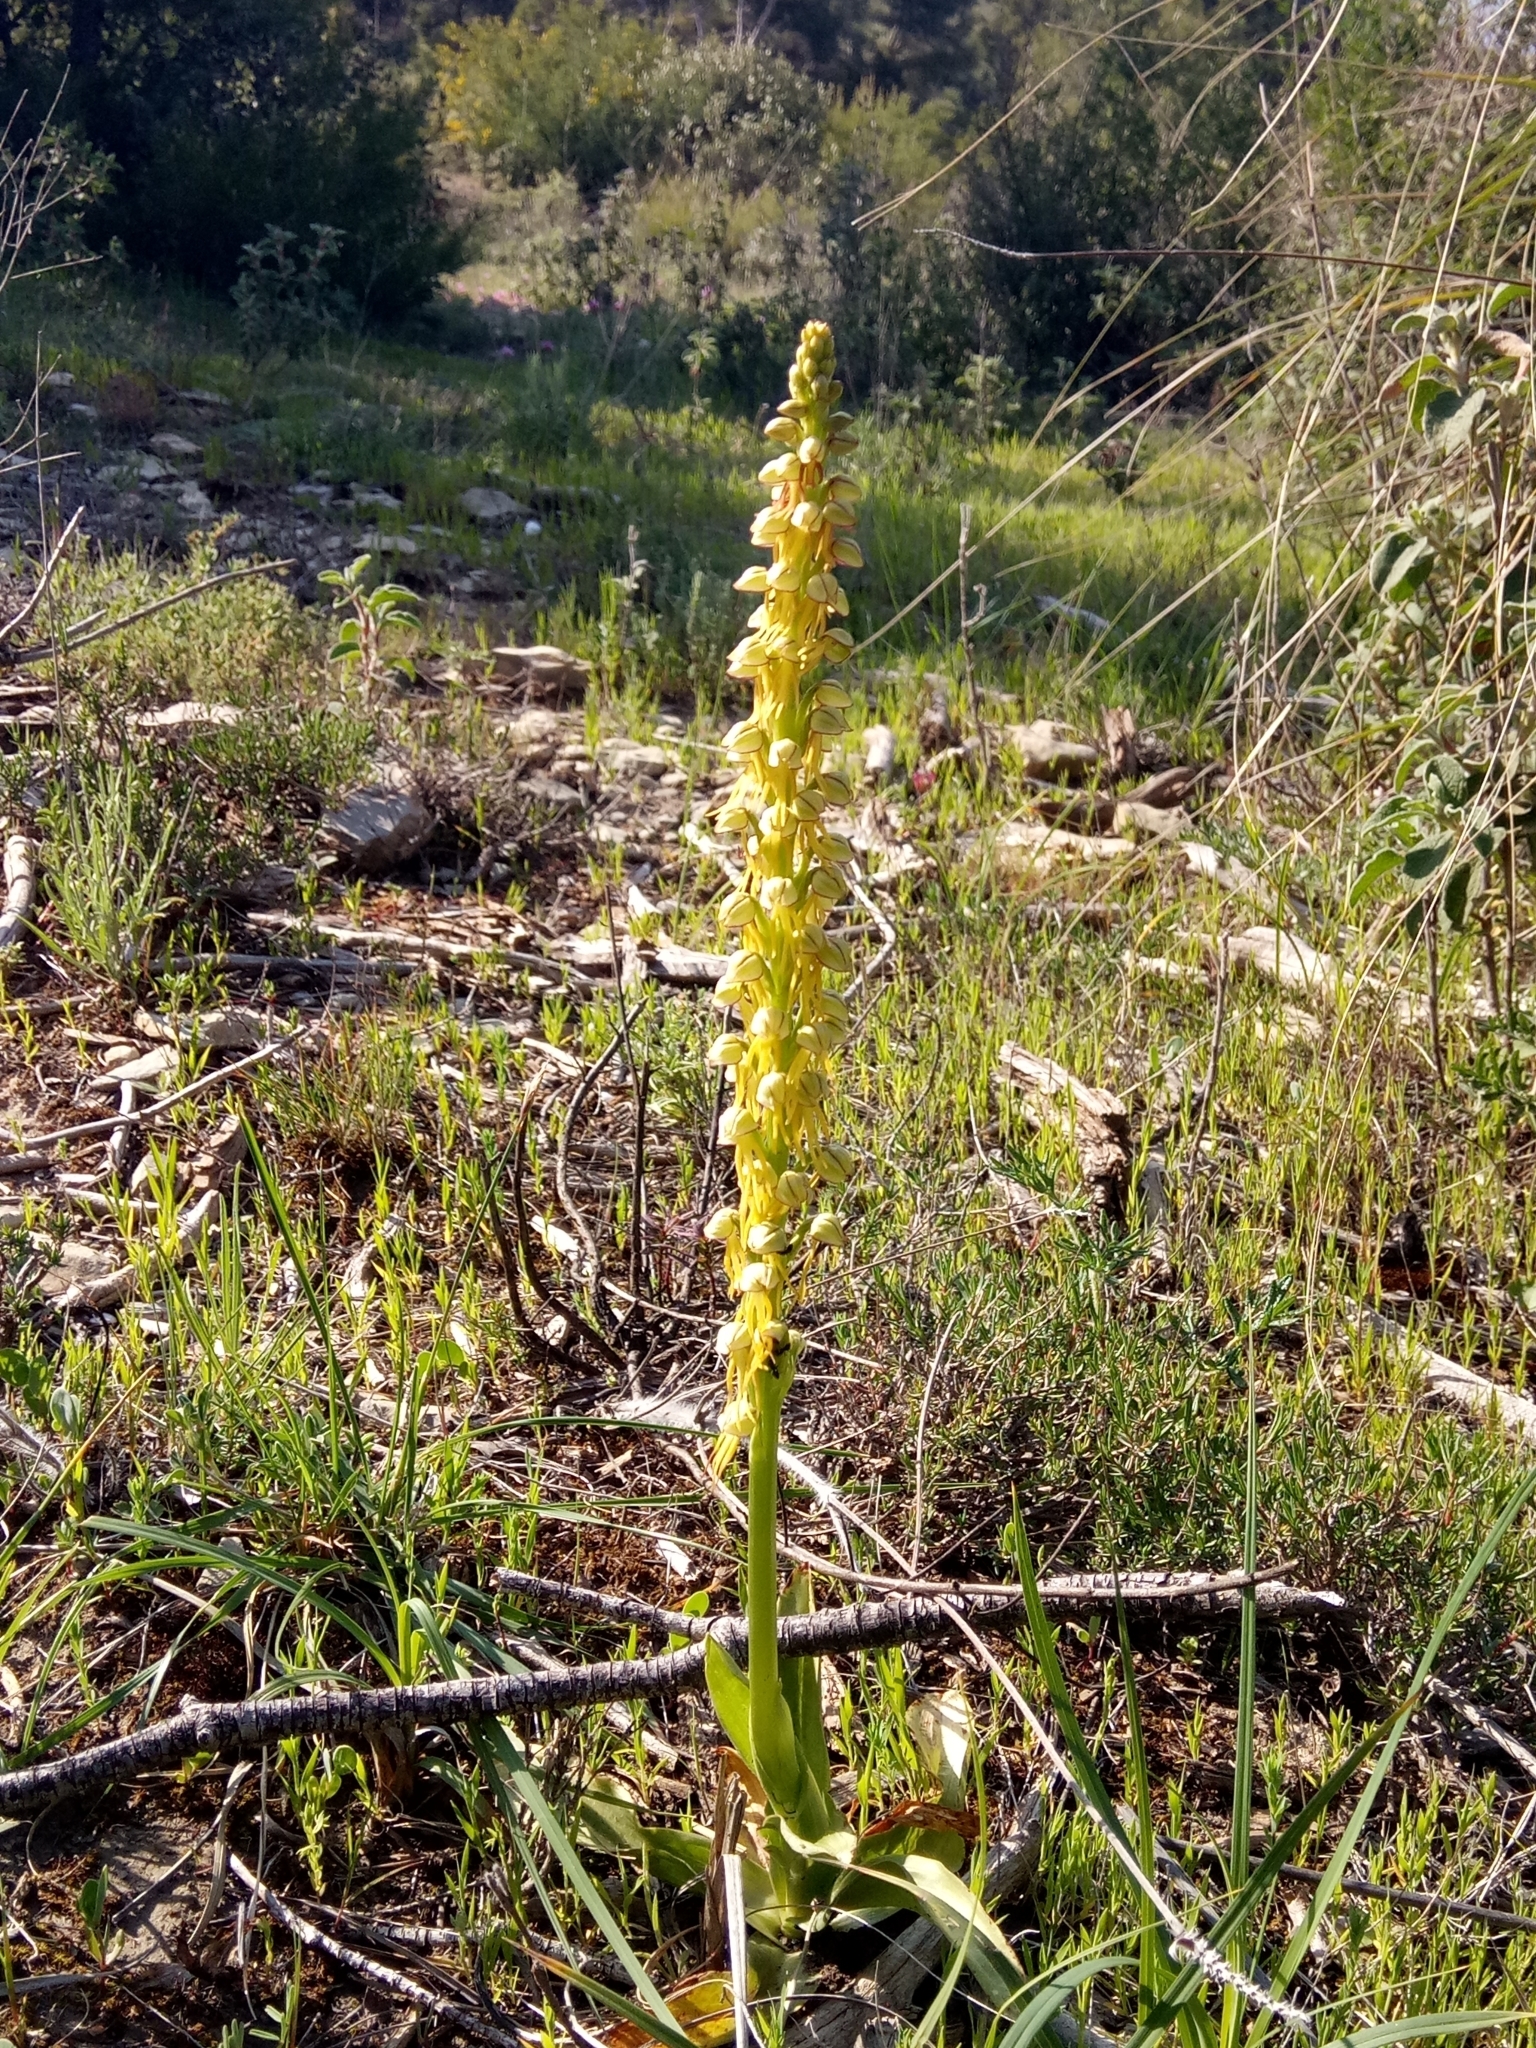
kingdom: Plantae
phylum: Tracheophyta
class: Liliopsida
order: Asparagales
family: Orchidaceae
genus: Orchis
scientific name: Orchis anthropophora
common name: Man orchid
